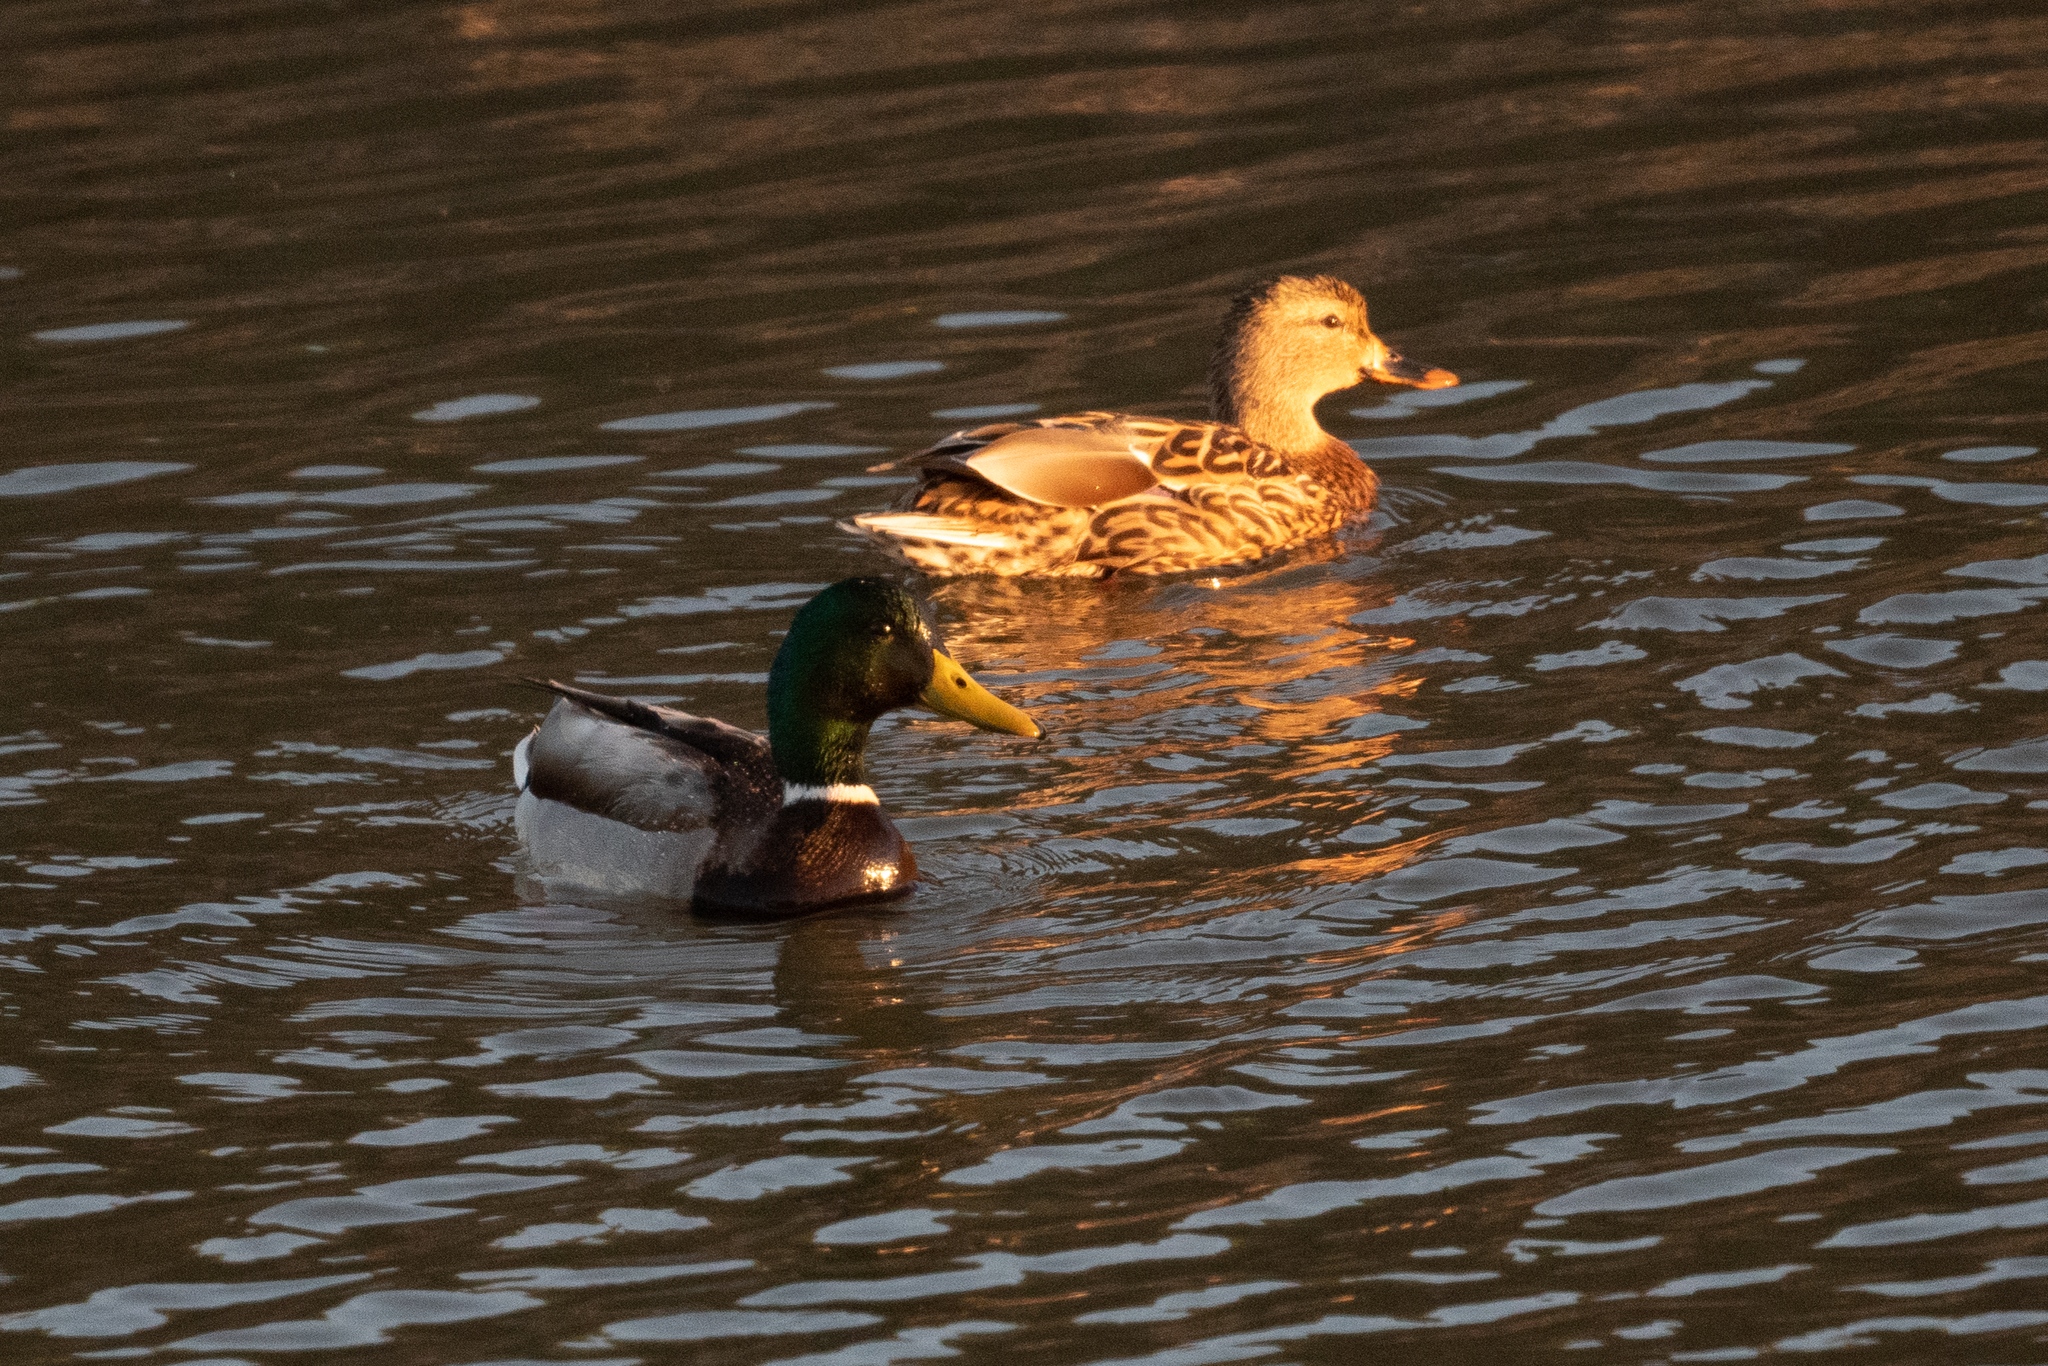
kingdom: Animalia
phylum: Chordata
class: Aves
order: Anseriformes
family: Anatidae
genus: Anas
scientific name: Anas platyrhynchos
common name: Mallard
